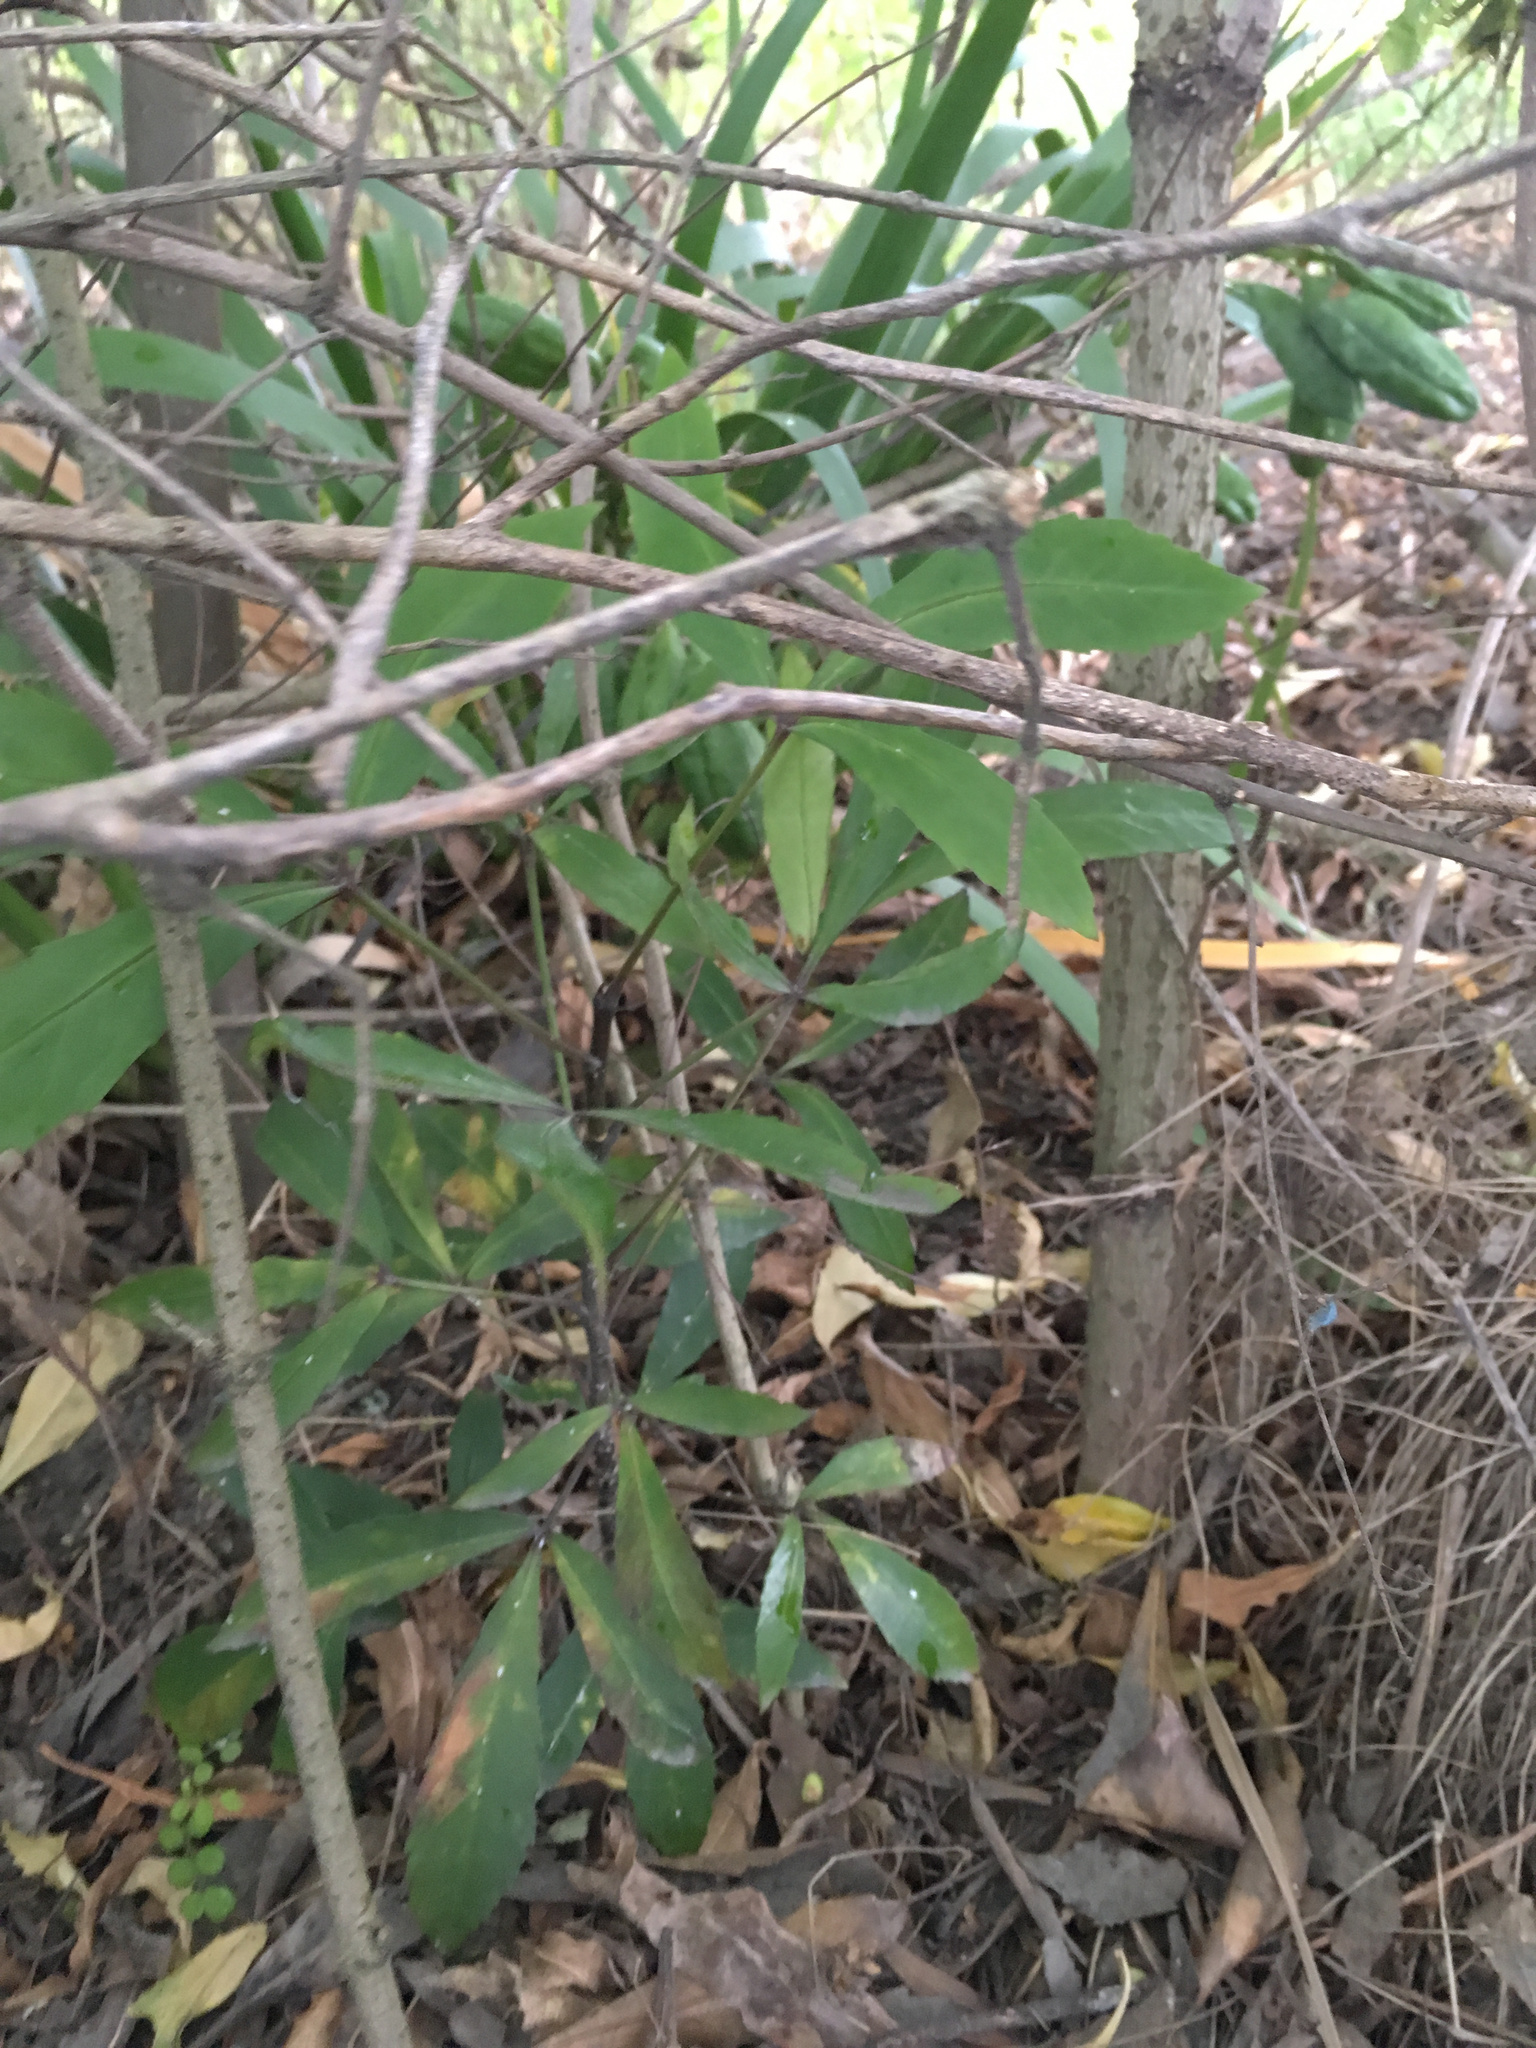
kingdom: Plantae
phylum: Tracheophyta
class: Magnoliopsida
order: Apiales
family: Araliaceae
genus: Pseudopanax
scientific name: Pseudopanax
